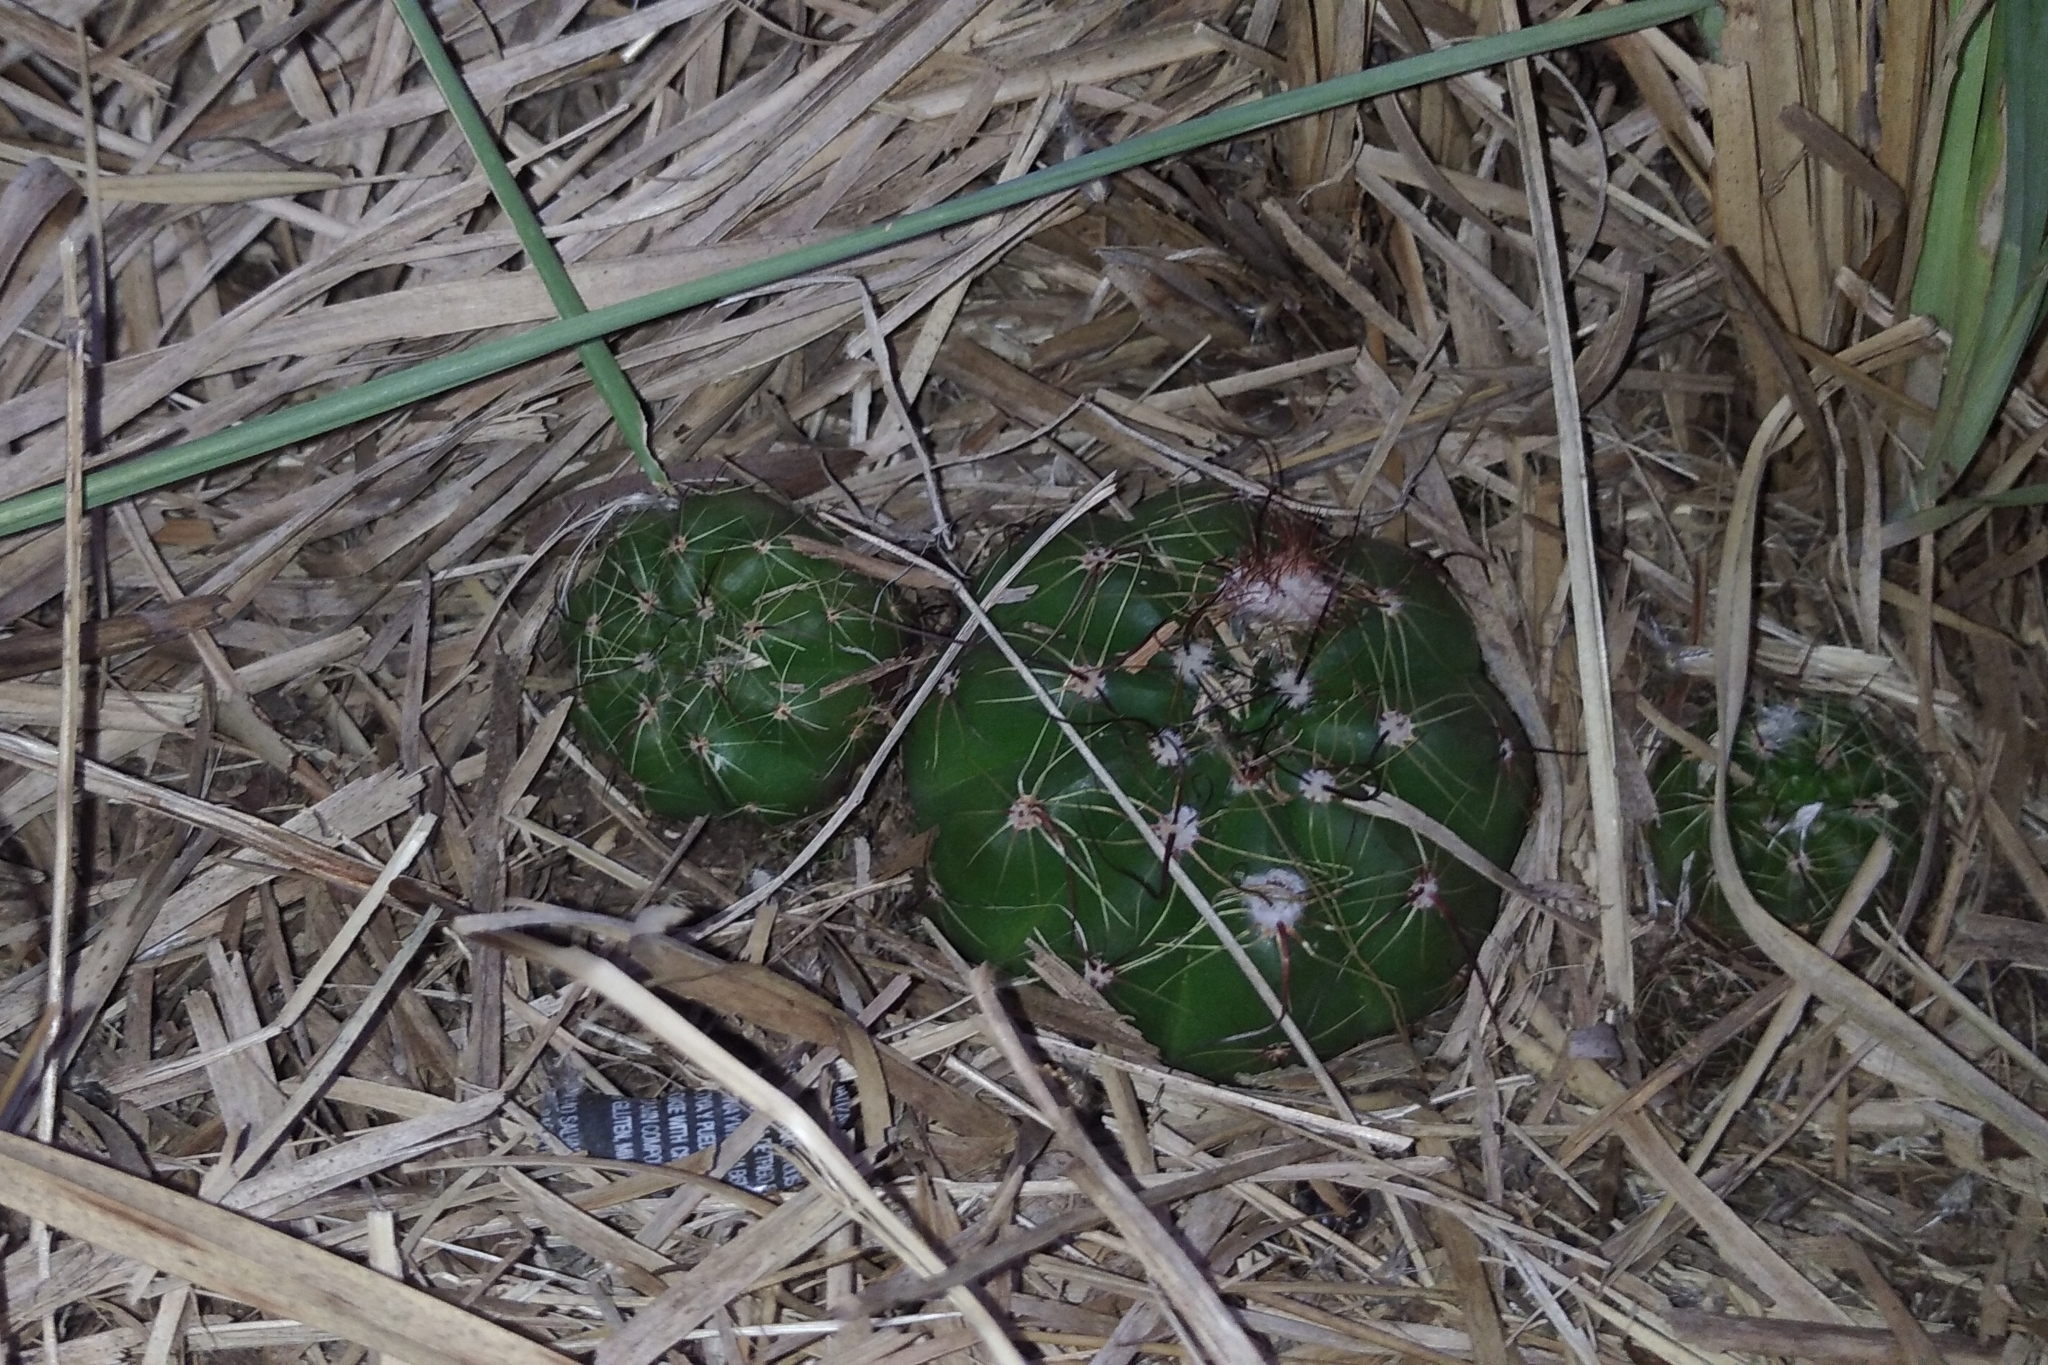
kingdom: Plantae
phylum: Tracheophyta
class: Magnoliopsida
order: Caryophyllales
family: Cactaceae
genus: Parodia
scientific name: Parodia ottonis
